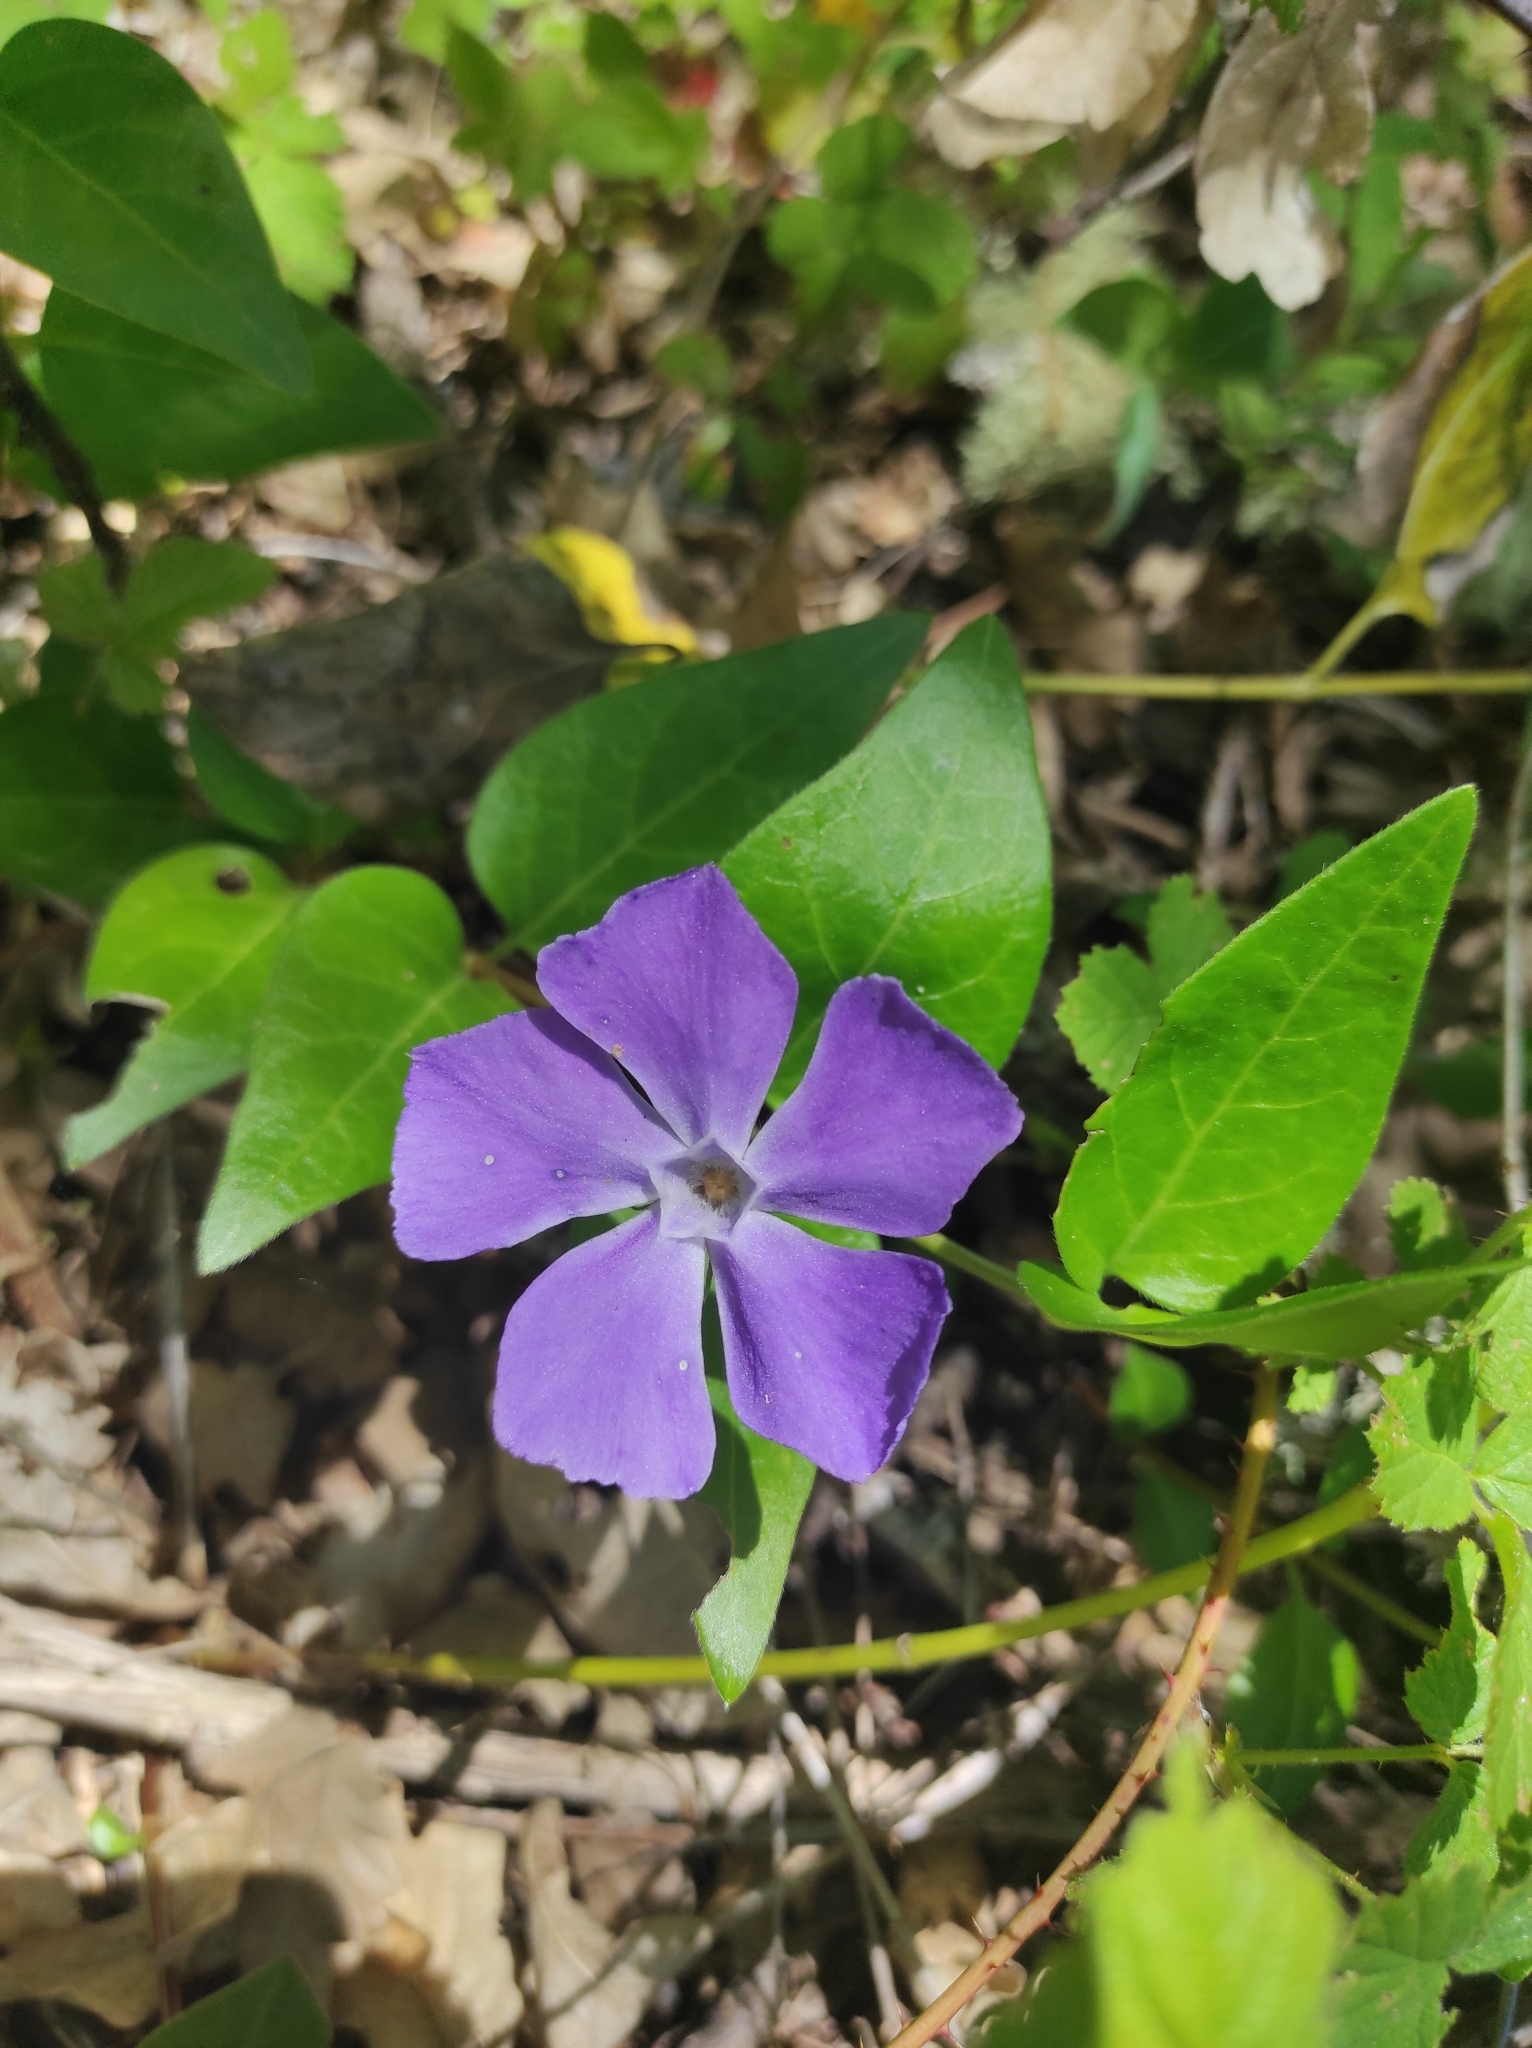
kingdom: Plantae
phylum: Tracheophyta
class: Magnoliopsida
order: Gentianales
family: Apocynaceae
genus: Vinca
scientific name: Vinca major
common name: Greater periwinkle
